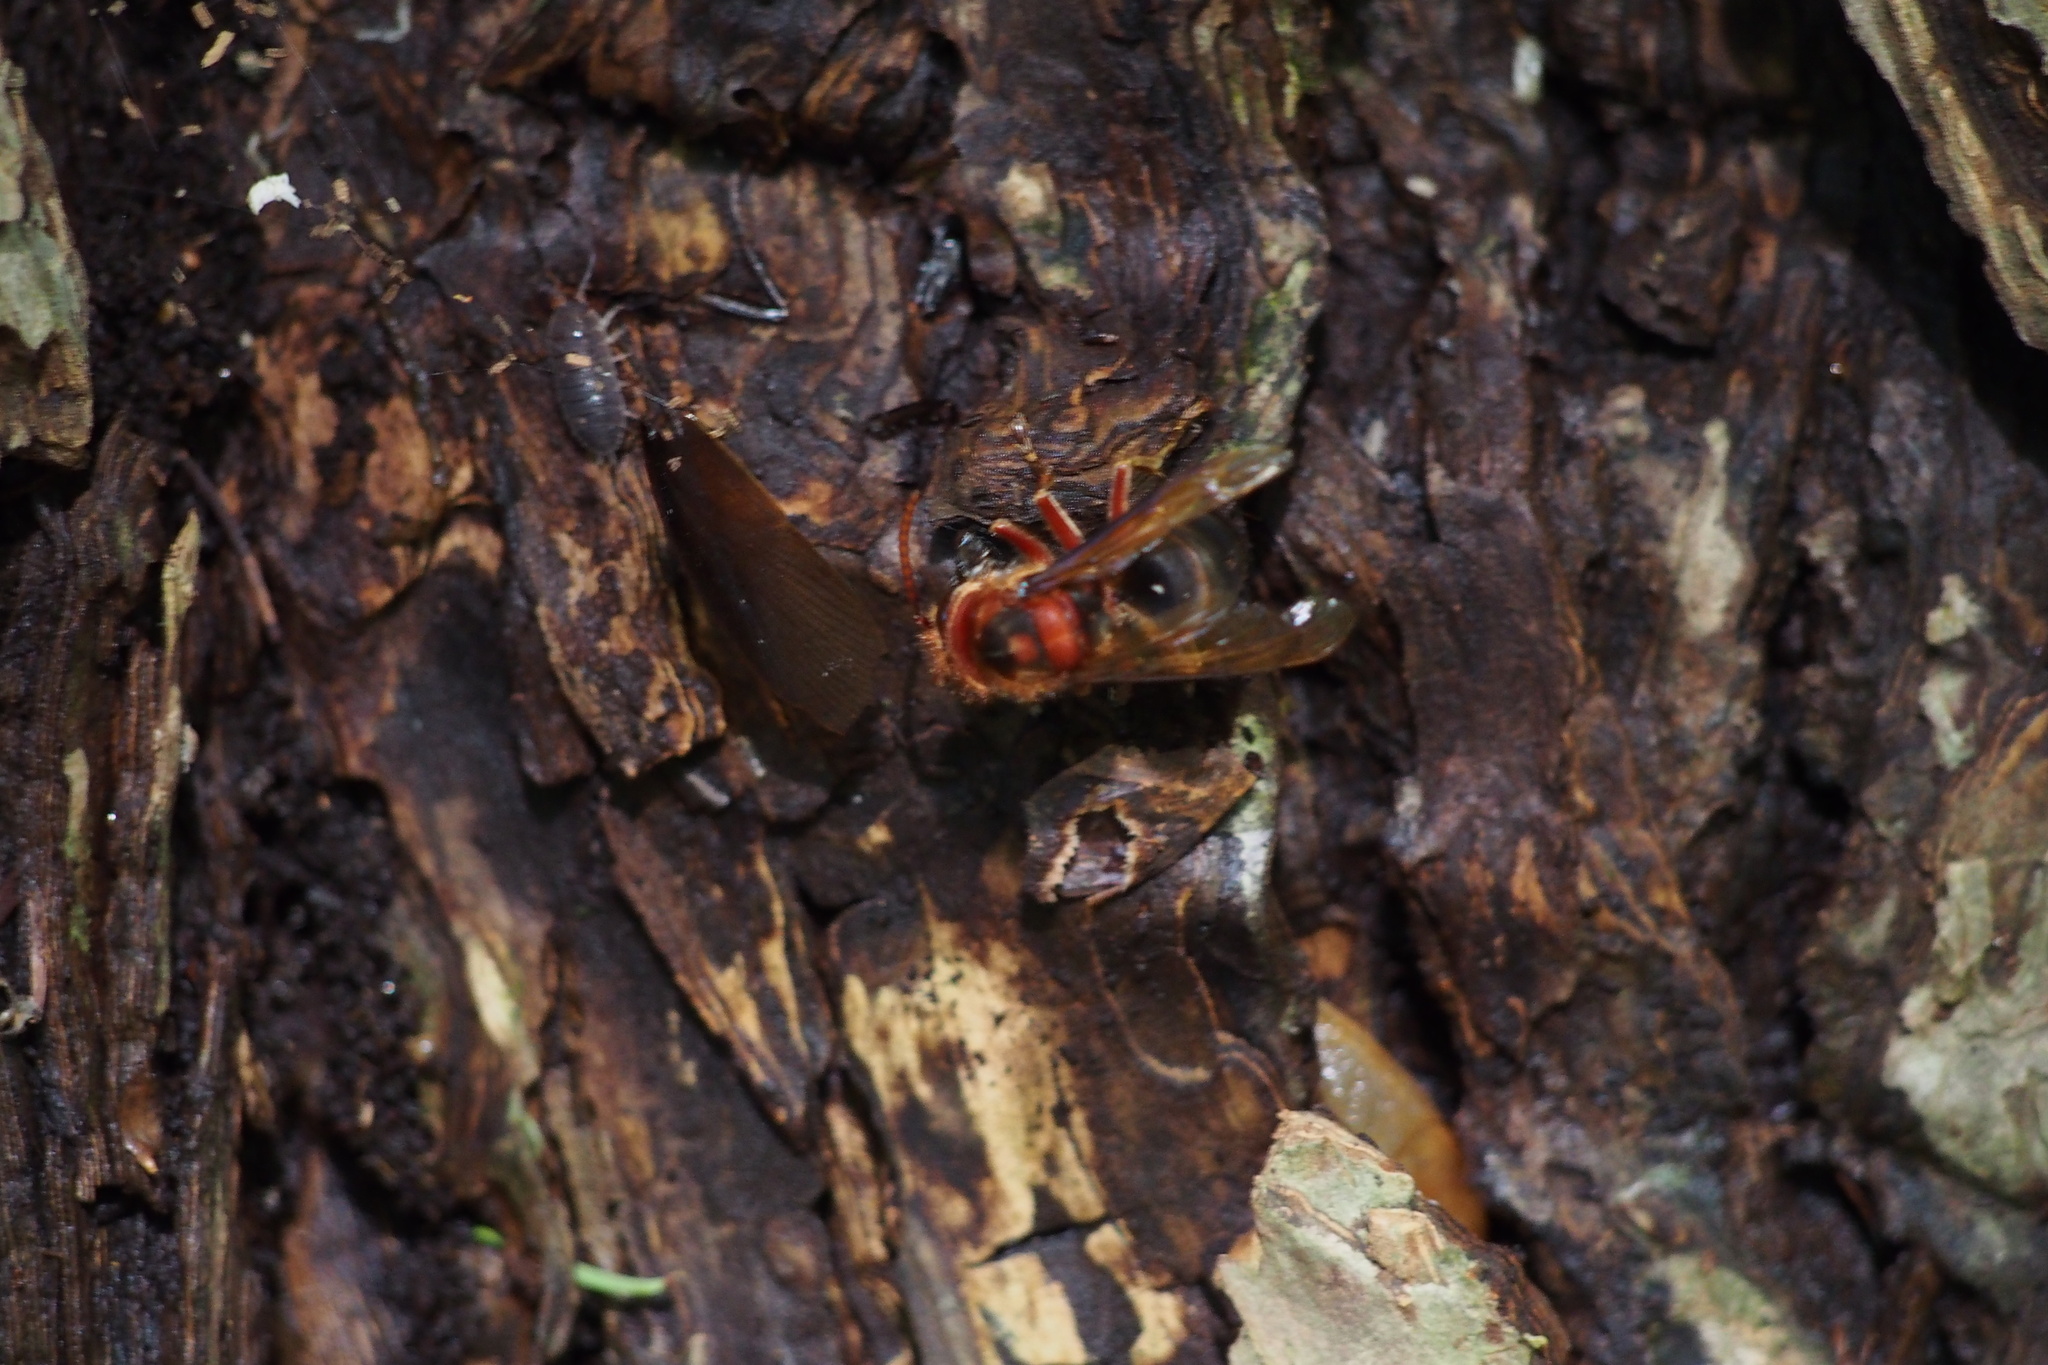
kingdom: Animalia
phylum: Arthropoda
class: Insecta
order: Hymenoptera
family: Vespidae
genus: Vespa
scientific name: Vespa dybowskii
